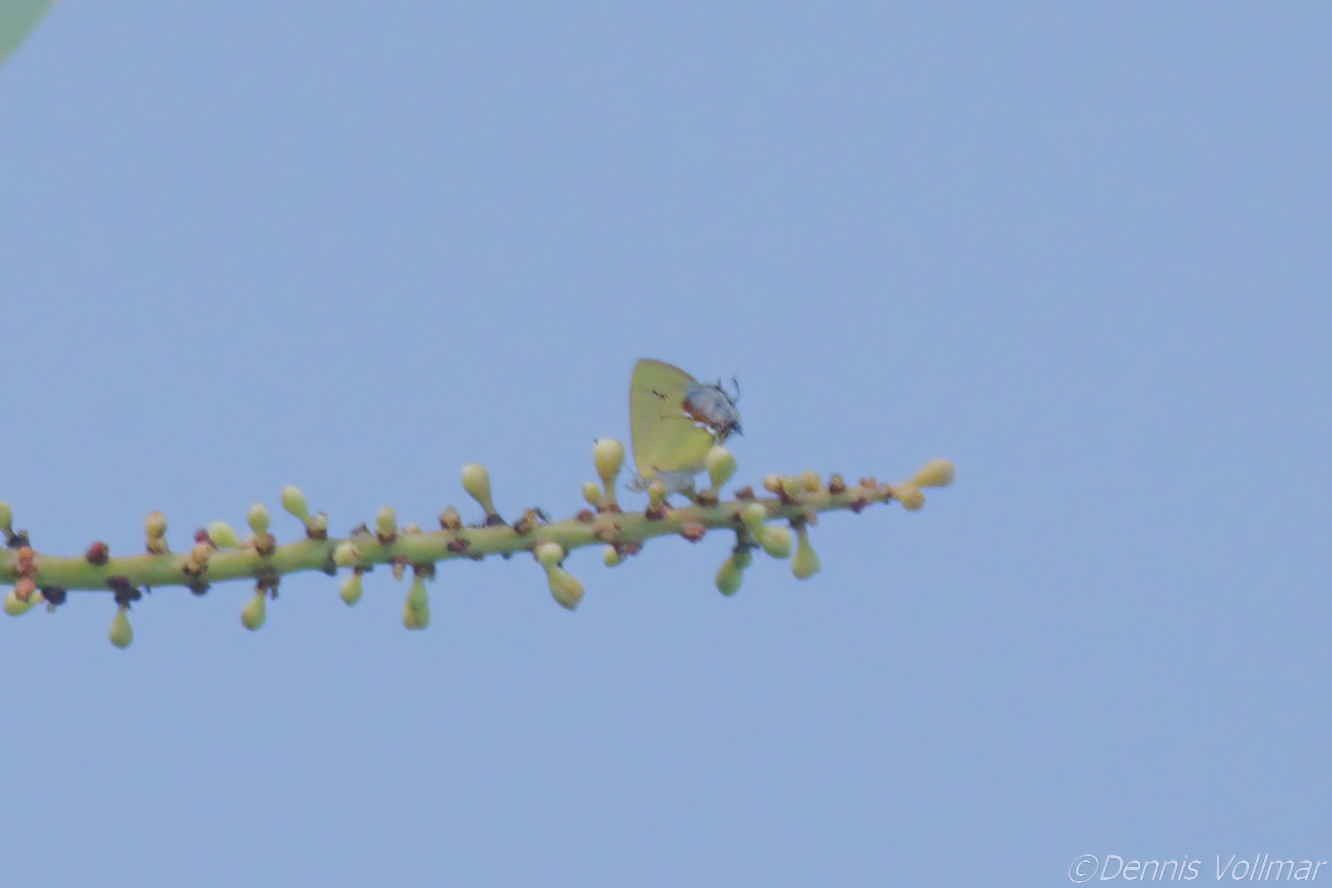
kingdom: Animalia
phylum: Arthropoda
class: Insecta
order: Lepidoptera
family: Lycaenidae
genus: Thecla
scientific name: Thecla maesites
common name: Verde azul hairstreak
